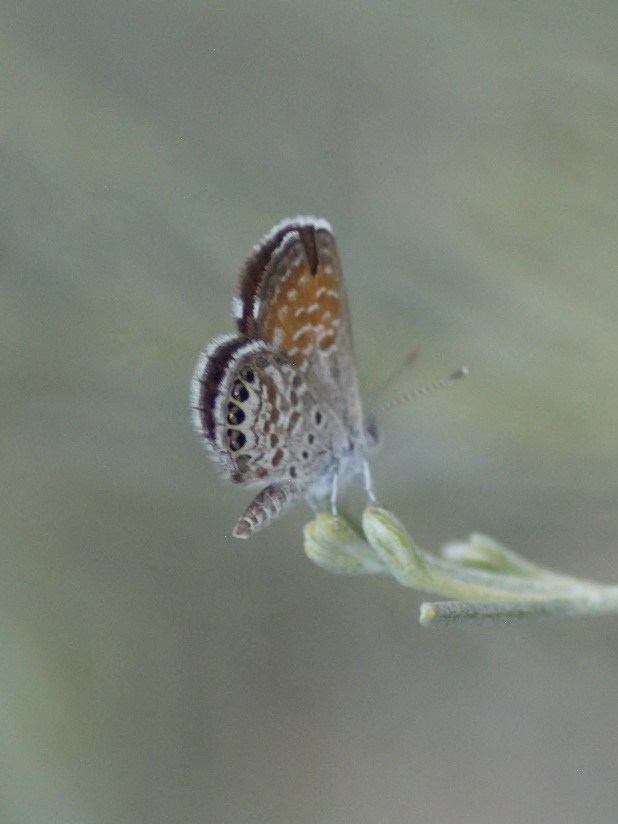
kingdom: Animalia
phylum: Arthropoda
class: Insecta
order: Lepidoptera
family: Lycaenidae
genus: Brephidium
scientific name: Brephidium exilis
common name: Pygmy blue
